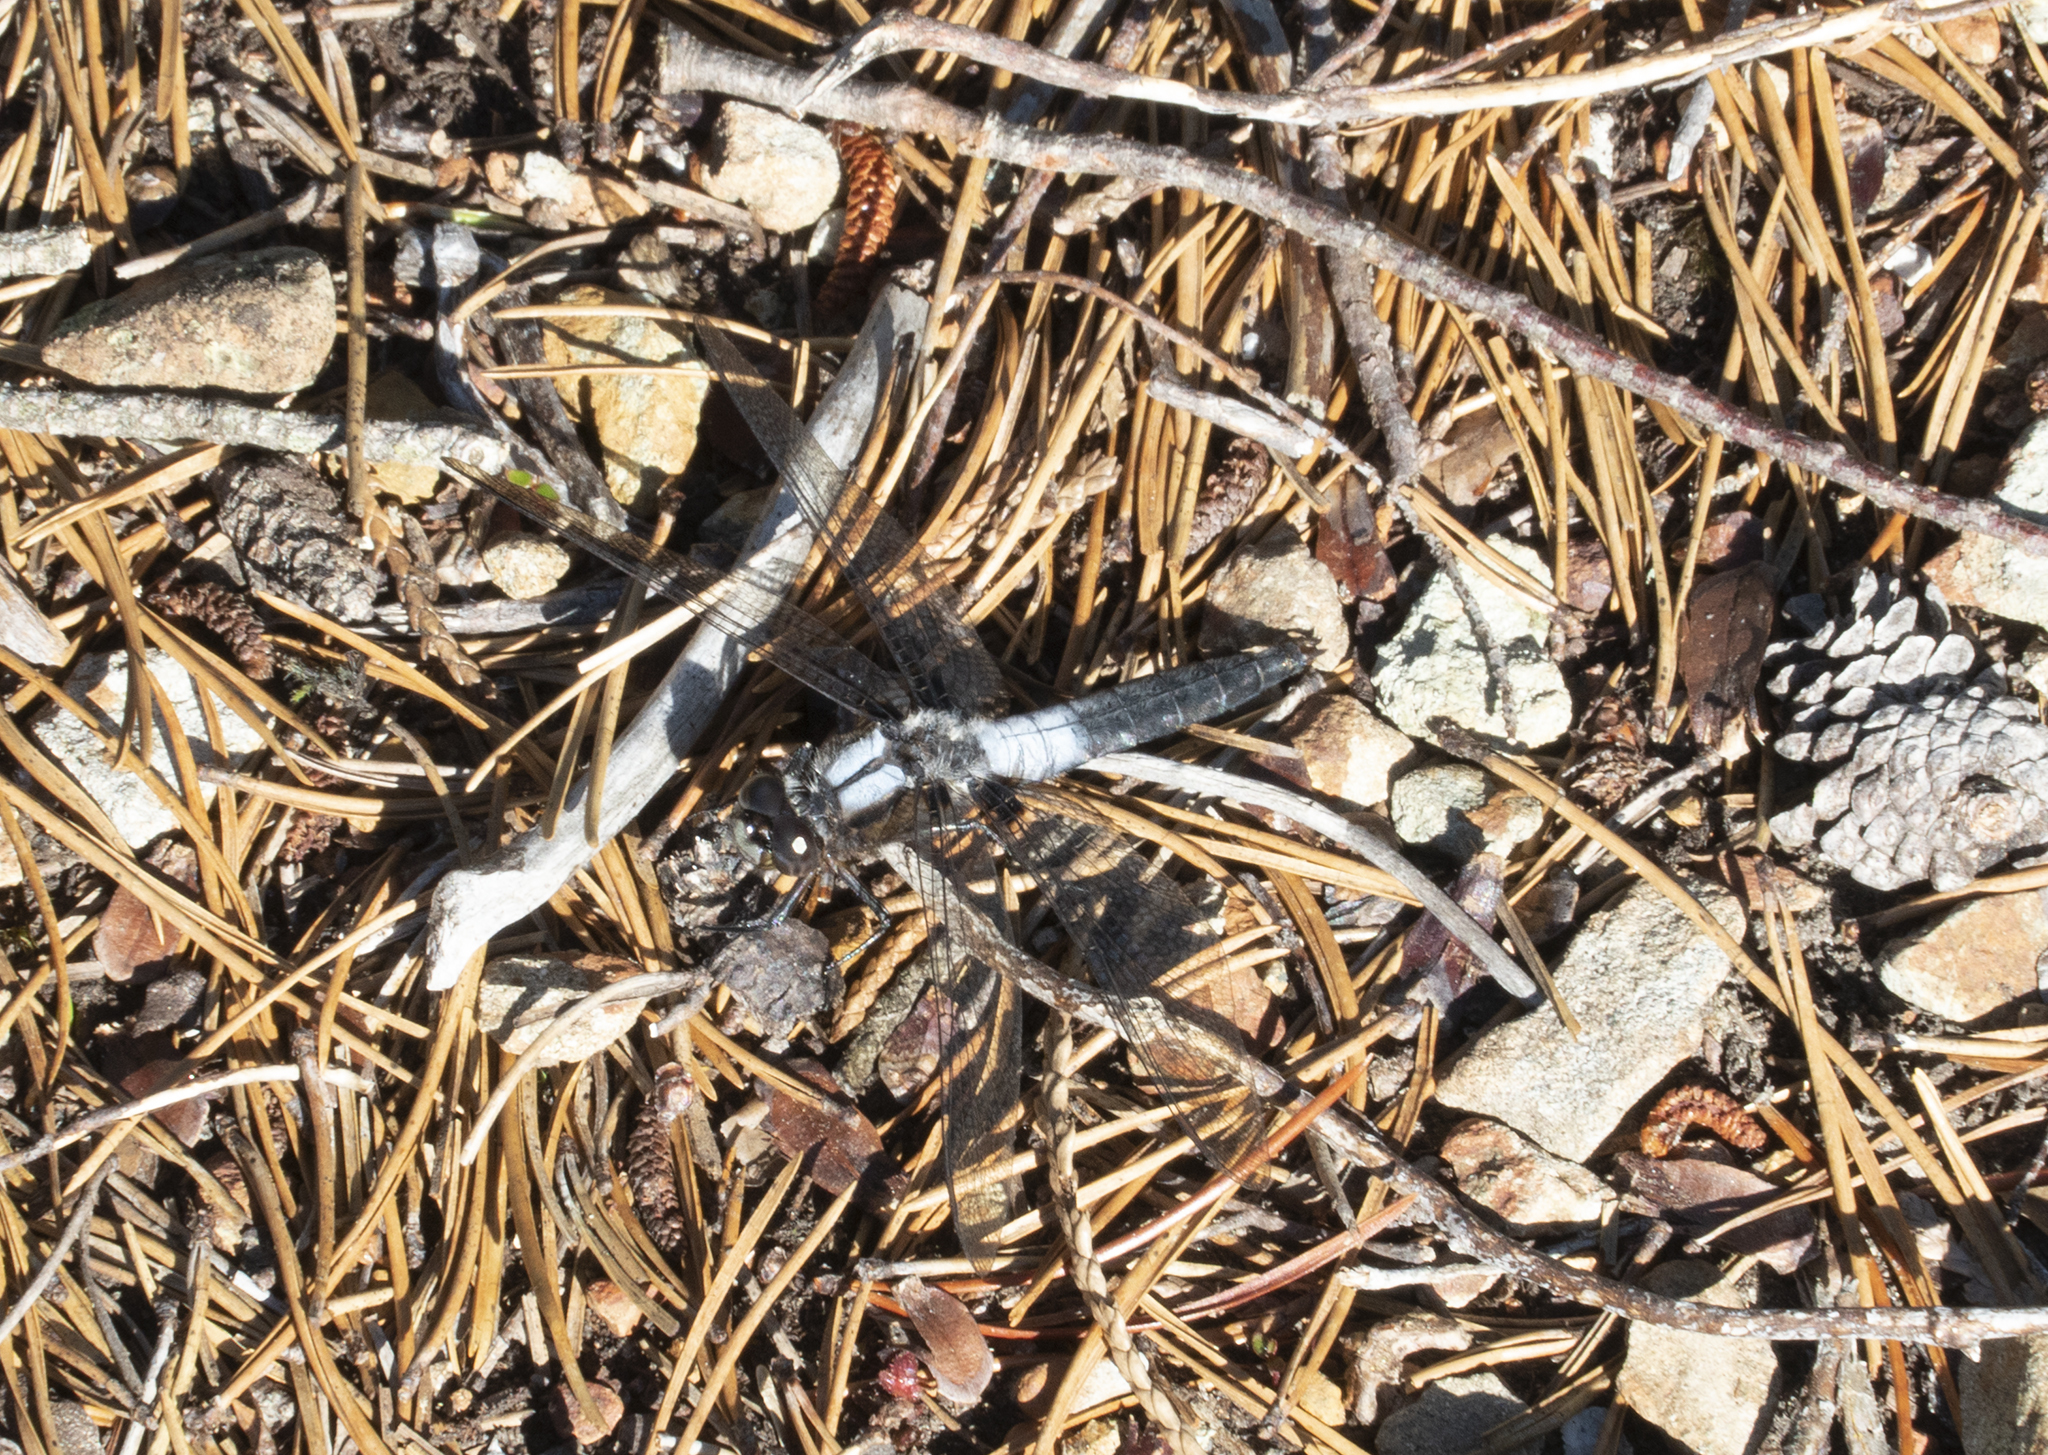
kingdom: Animalia
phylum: Arthropoda
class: Insecta
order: Odonata
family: Libellulidae
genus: Ladona
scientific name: Ladona julia
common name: Chalk-fronted corporal
